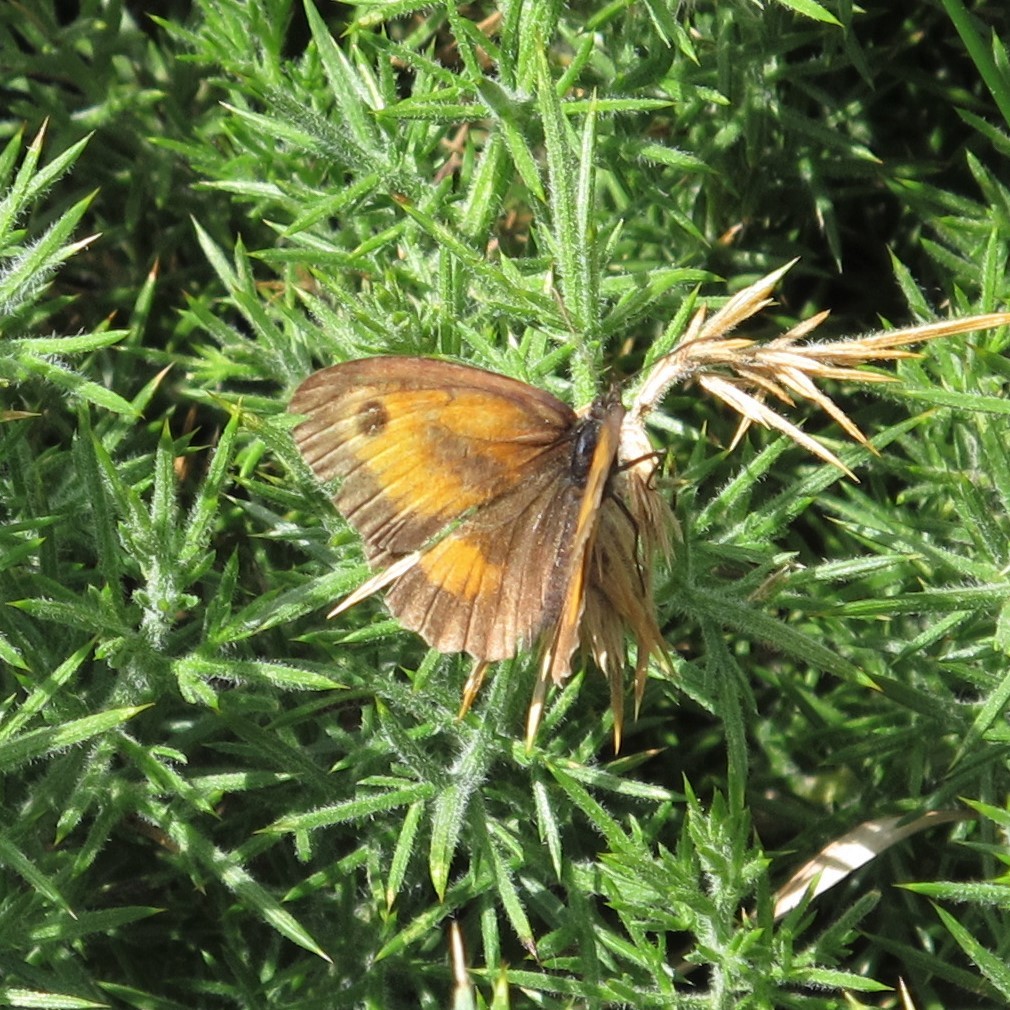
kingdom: Animalia
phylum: Arthropoda
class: Insecta
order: Lepidoptera
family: Nymphalidae
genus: Pyronia
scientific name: Pyronia tithonus
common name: Gatekeeper
